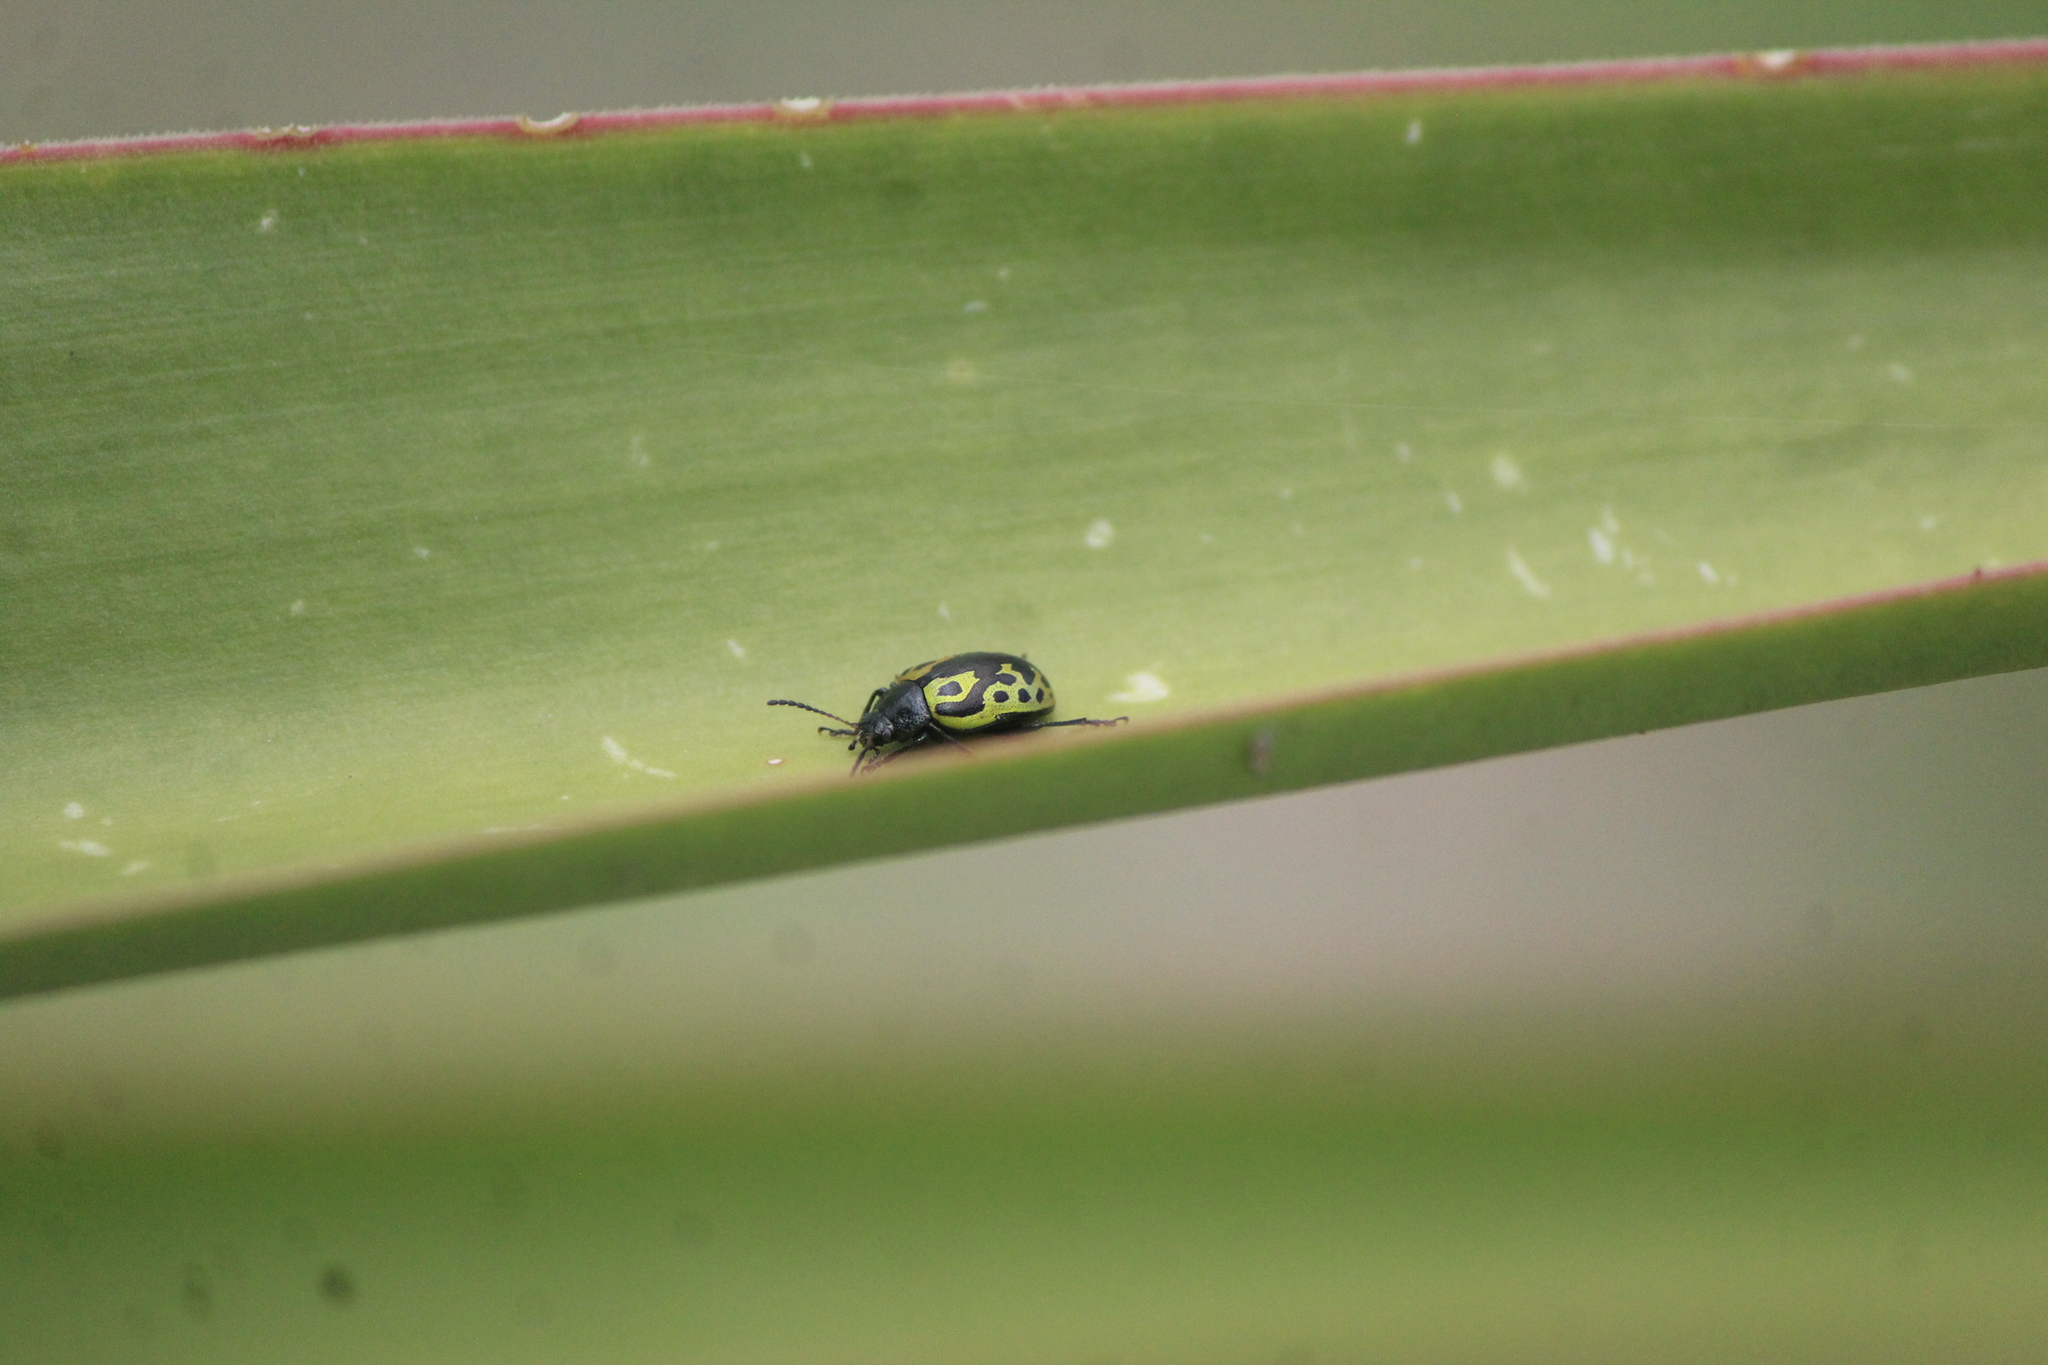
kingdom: Animalia
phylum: Arthropoda
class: Insecta
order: Coleoptera
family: Chrysomelidae
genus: Calligrapha
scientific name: Calligrapha
